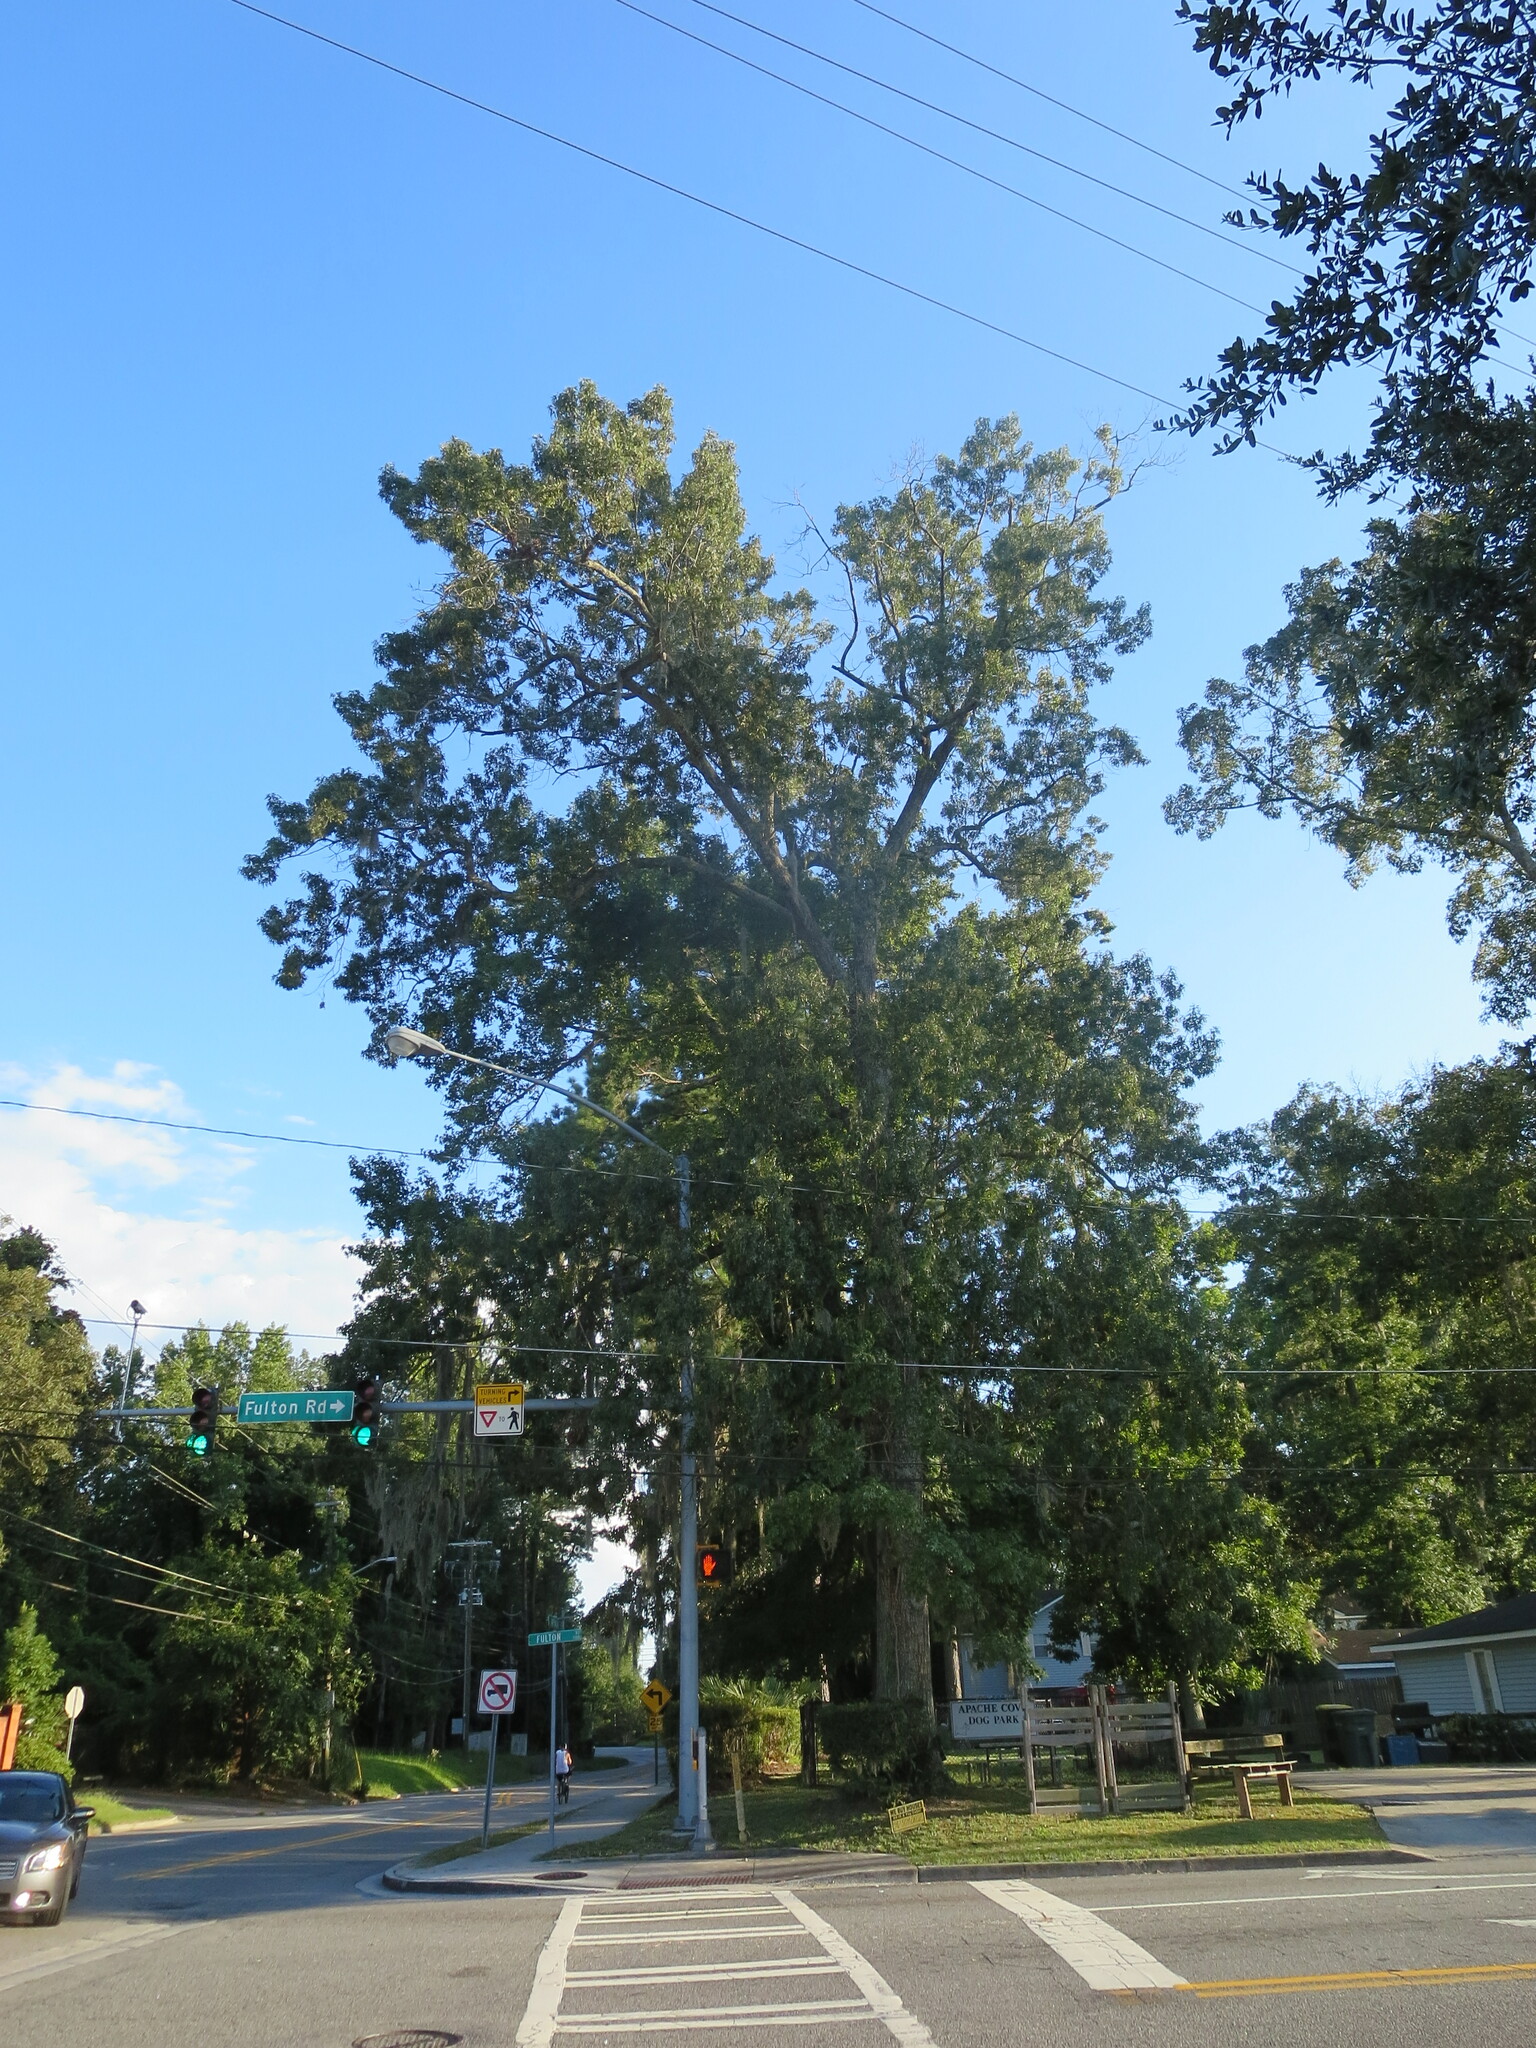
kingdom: Plantae
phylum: Tracheophyta
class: Magnoliopsida
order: Fagales
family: Fagaceae
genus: Quercus
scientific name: Quercus falcata
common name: Southern red oak
